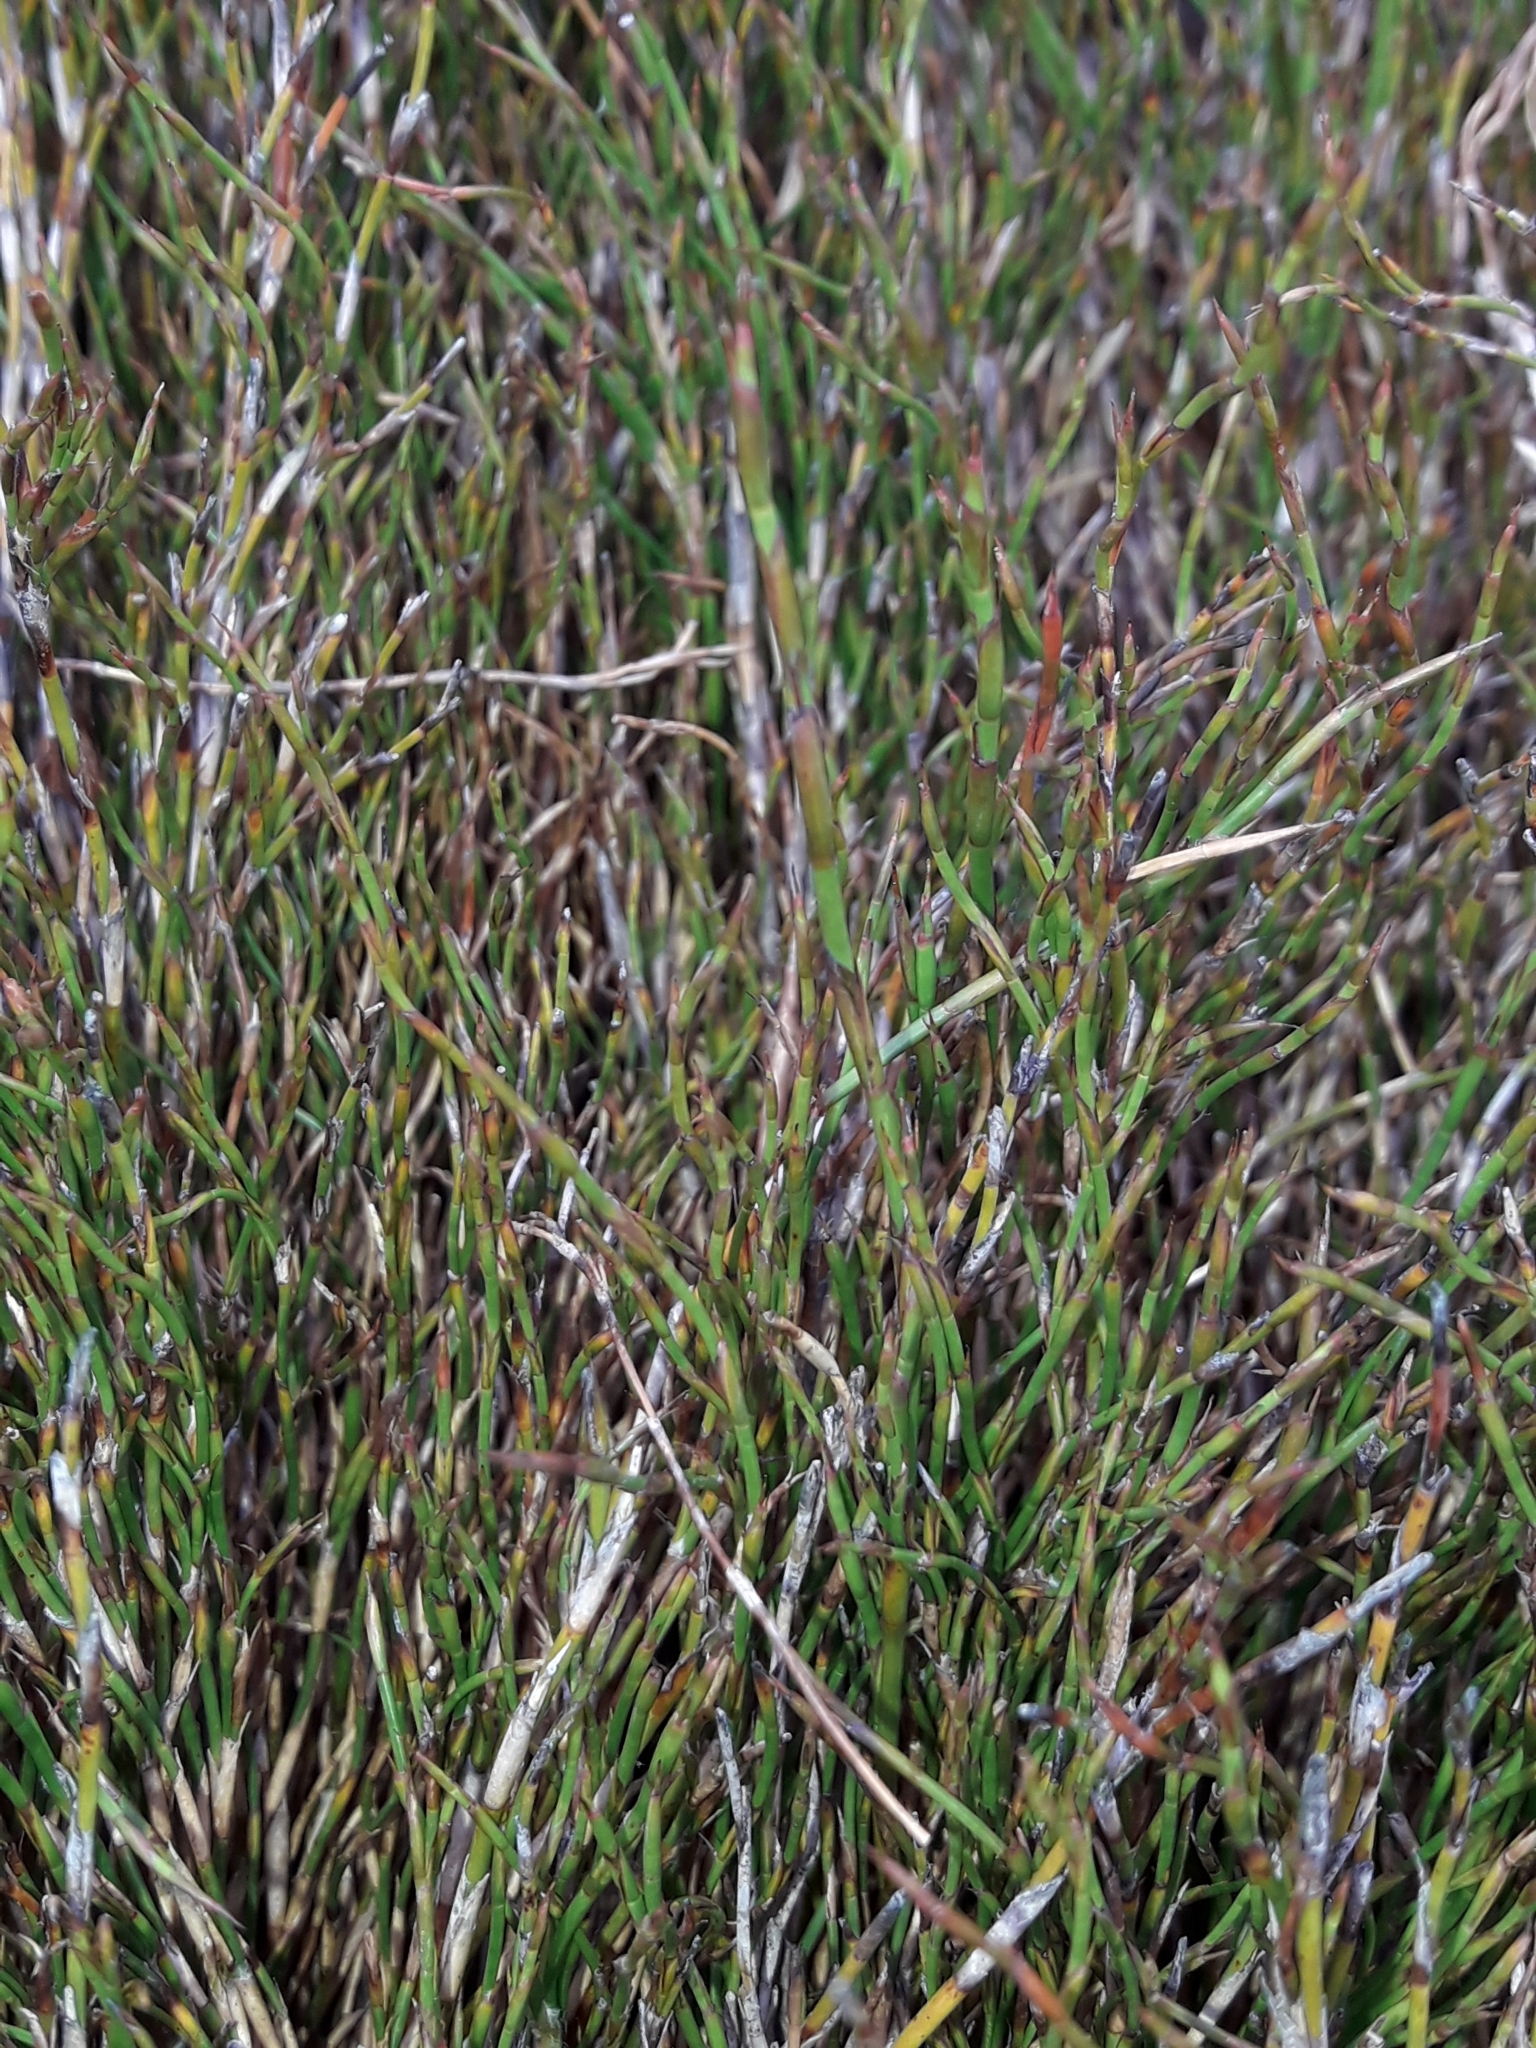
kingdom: Plantae
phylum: Tracheophyta
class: Liliopsida
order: Poales
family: Restionaceae
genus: Empodisma
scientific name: Empodisma minus
